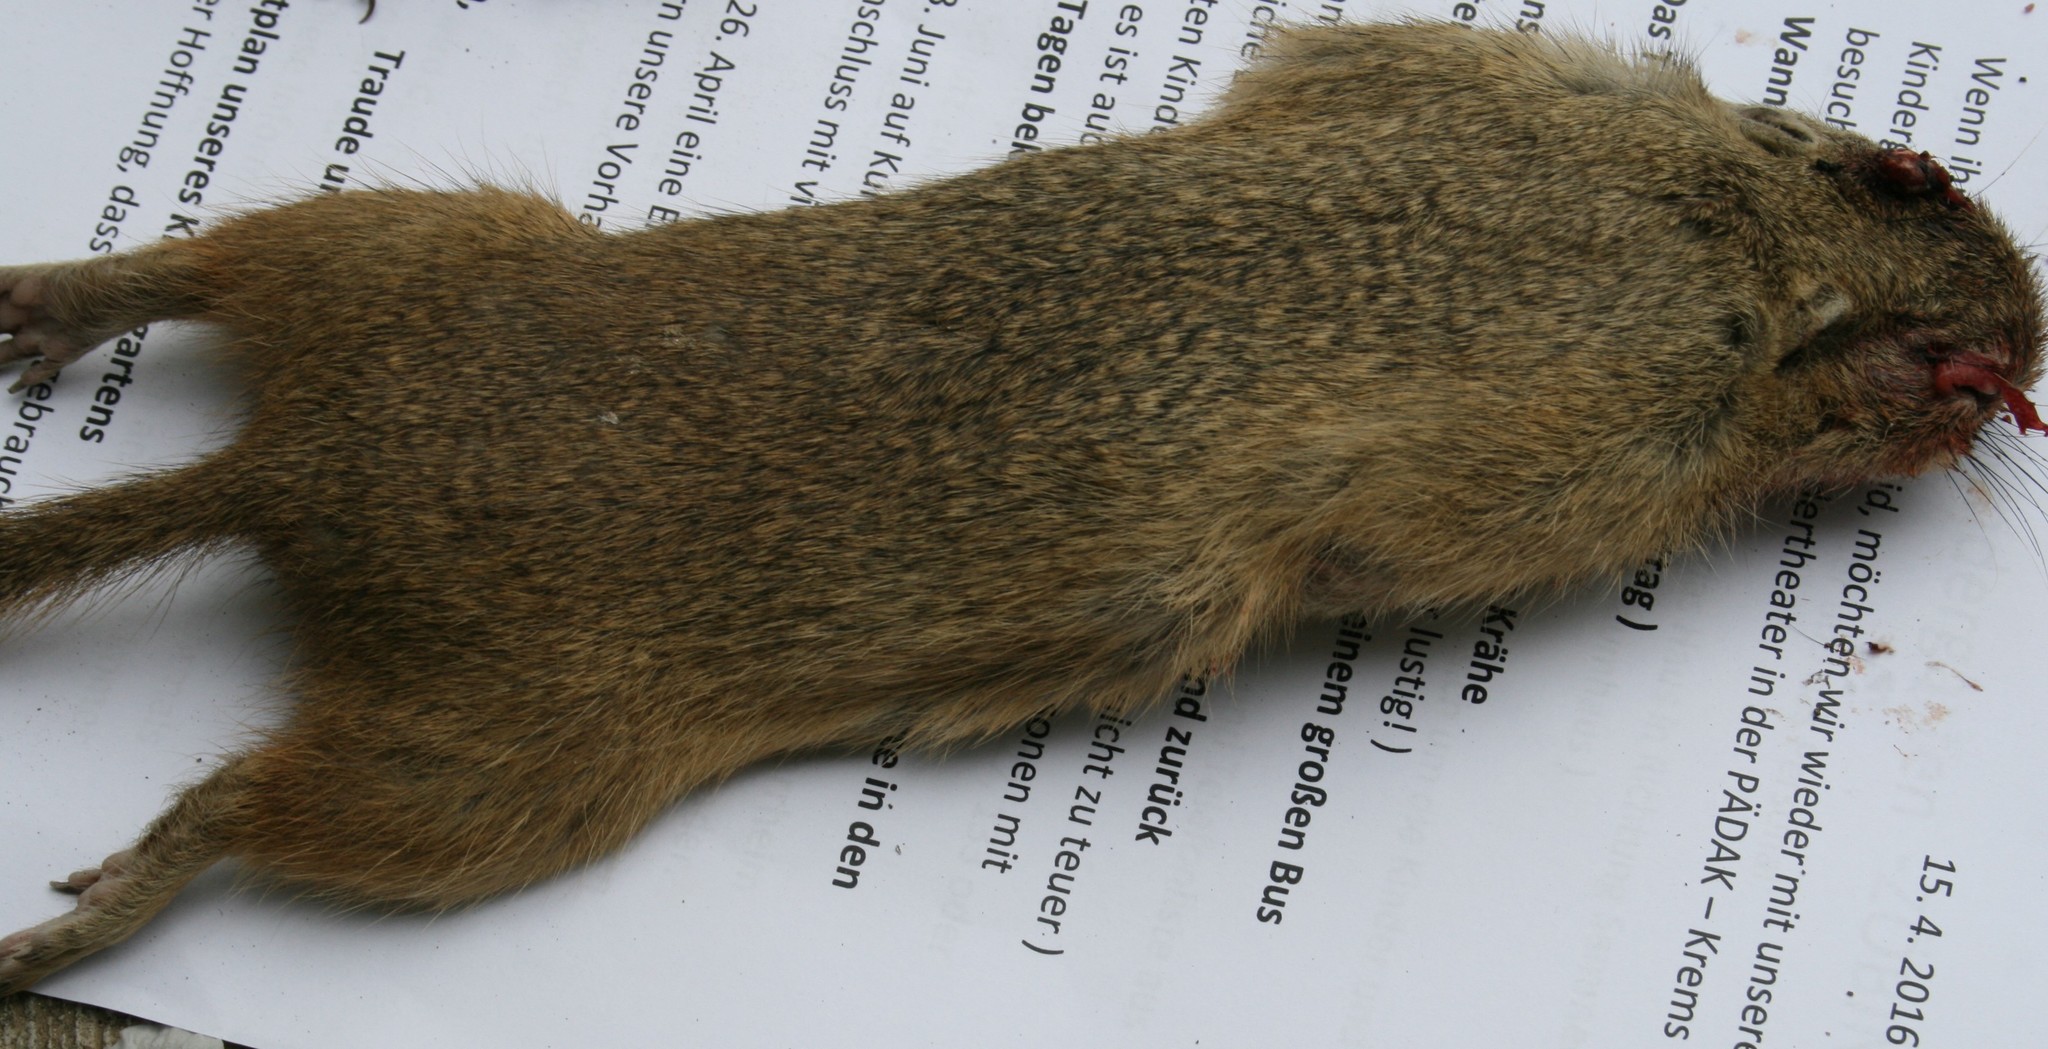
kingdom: Animalia
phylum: Chordata
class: Mammalia
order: Rodentia
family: Sciuridae
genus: Spermophilus
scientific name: Spermophilus citellus
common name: European ground squirrel
